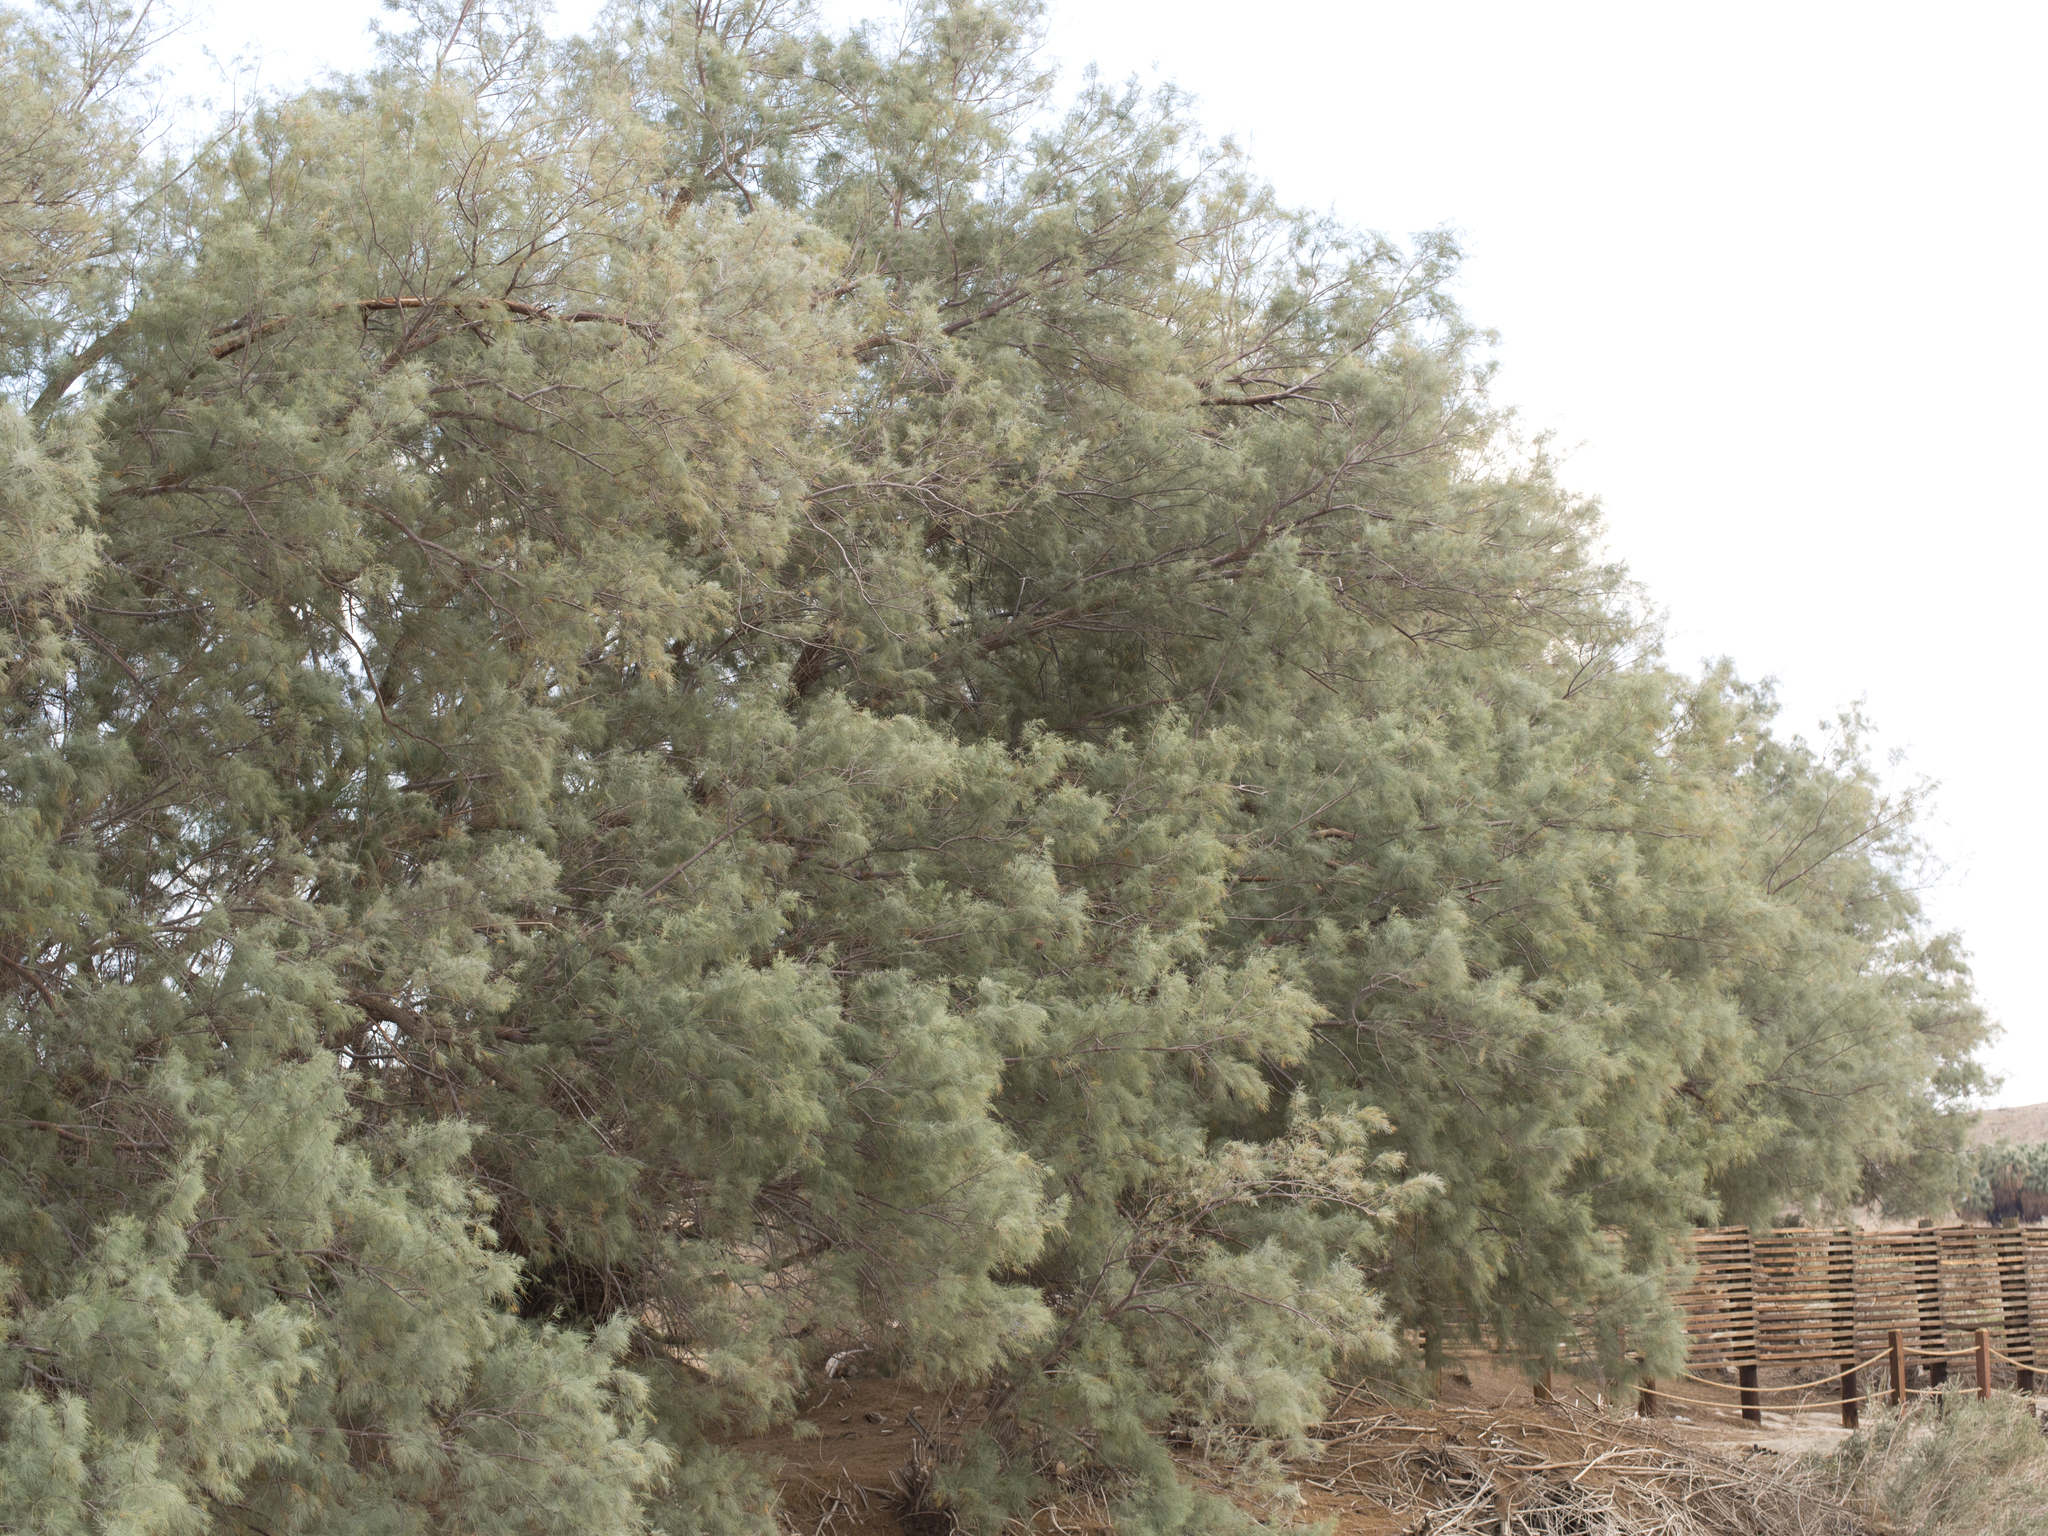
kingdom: Plantae
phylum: Tracheophyta
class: Magnoliopsida
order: Caryophyllales
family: Tamaricaceae
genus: Tamarix
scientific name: Tamarix aphylla
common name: Athel tamarisk
